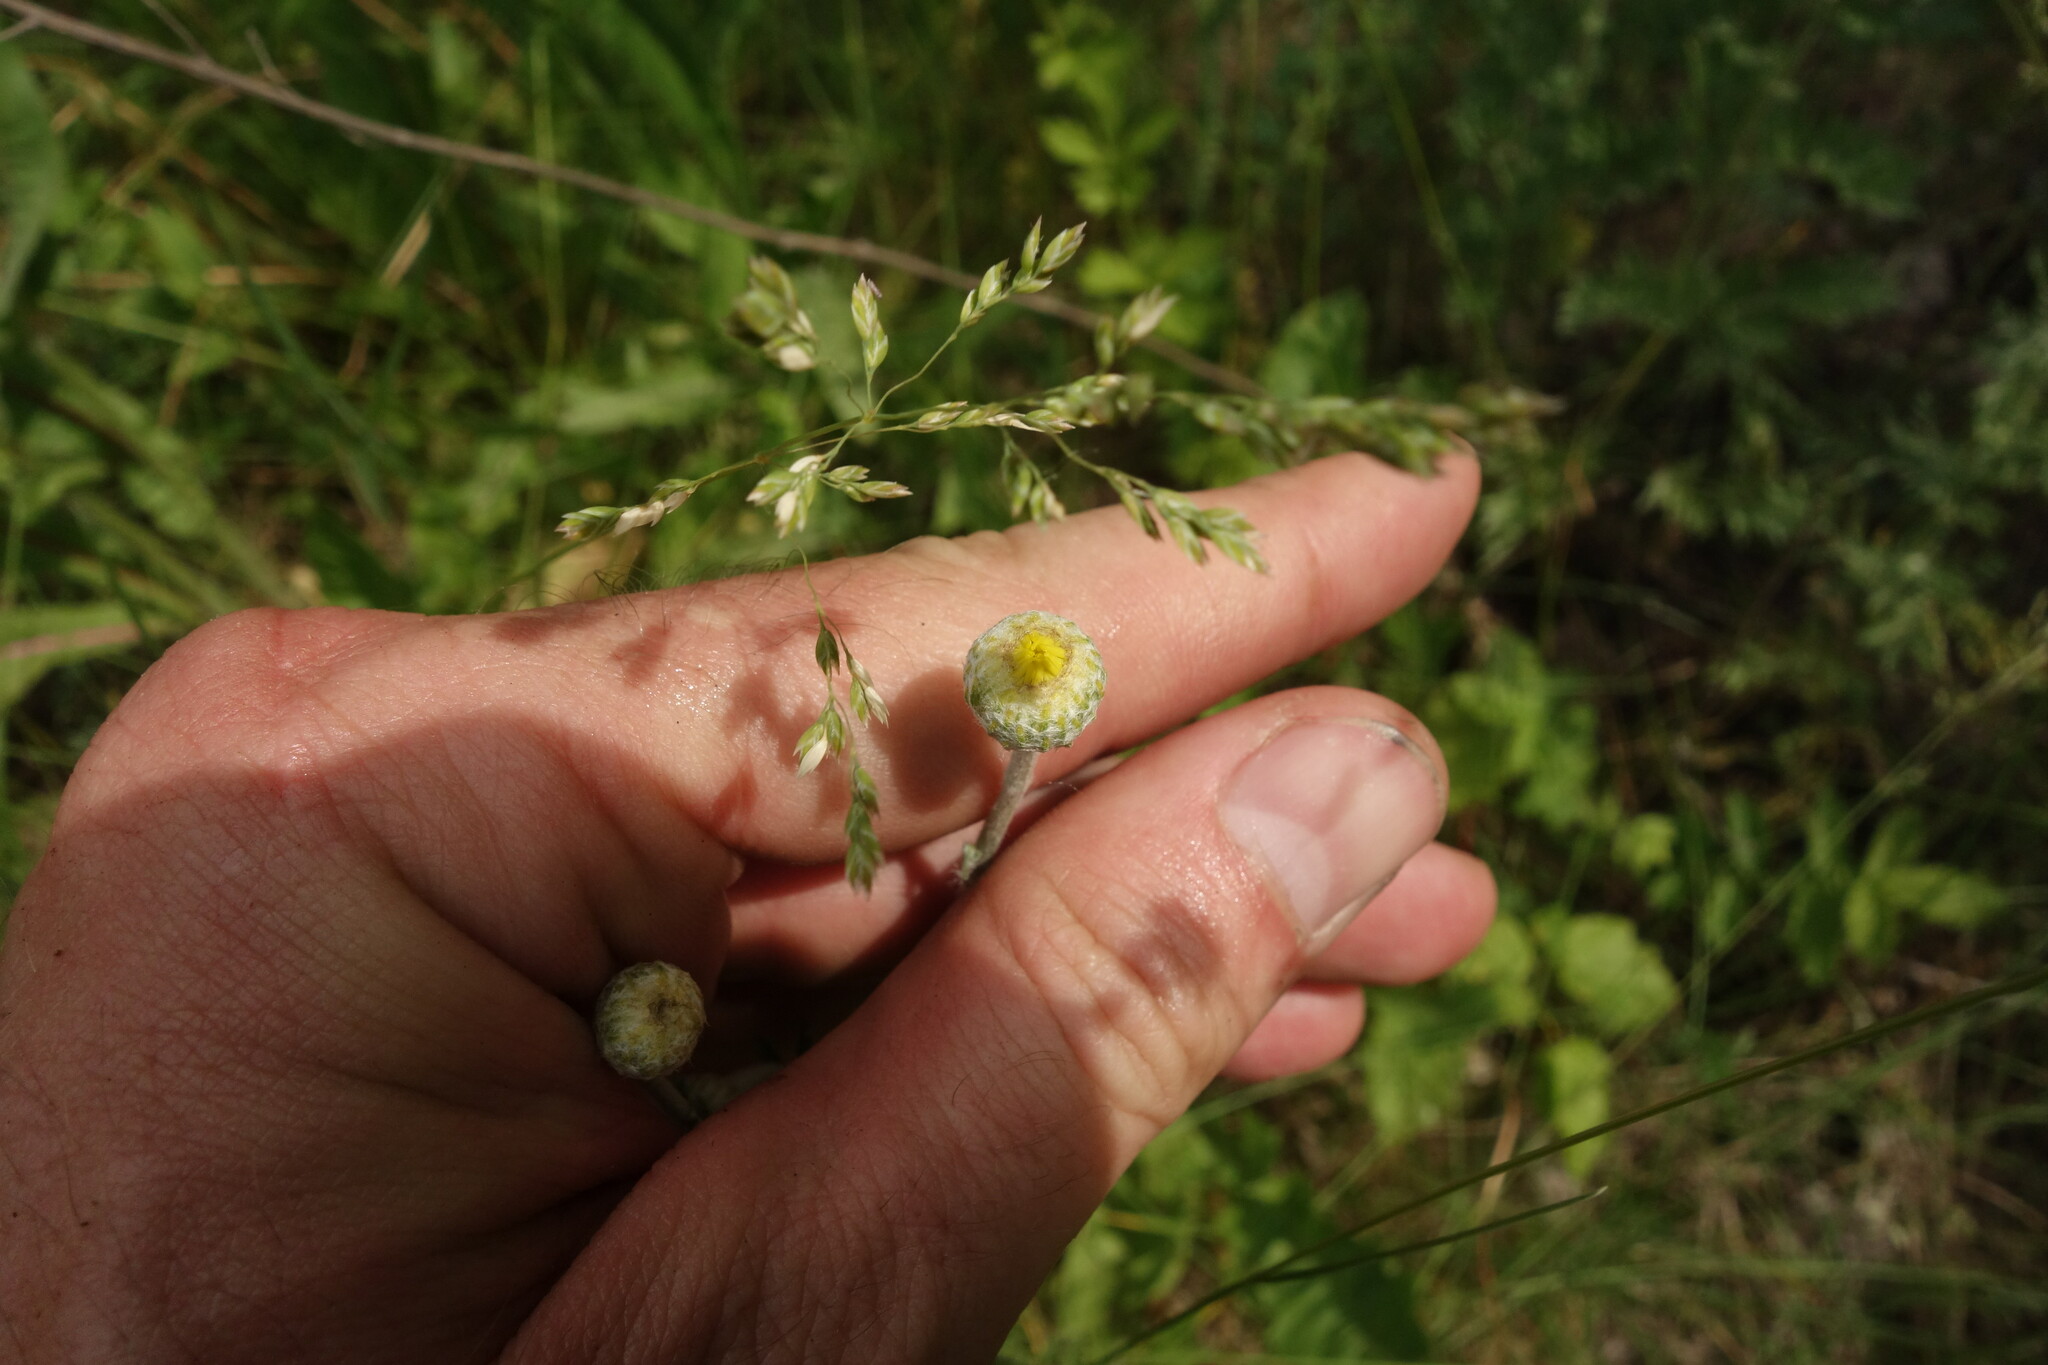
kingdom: Plantae
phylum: Tracheophyta
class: Magnoliopsida
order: Asterales
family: Asteraceae
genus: Cota
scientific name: Cota tinctoria
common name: Golden chamomile
